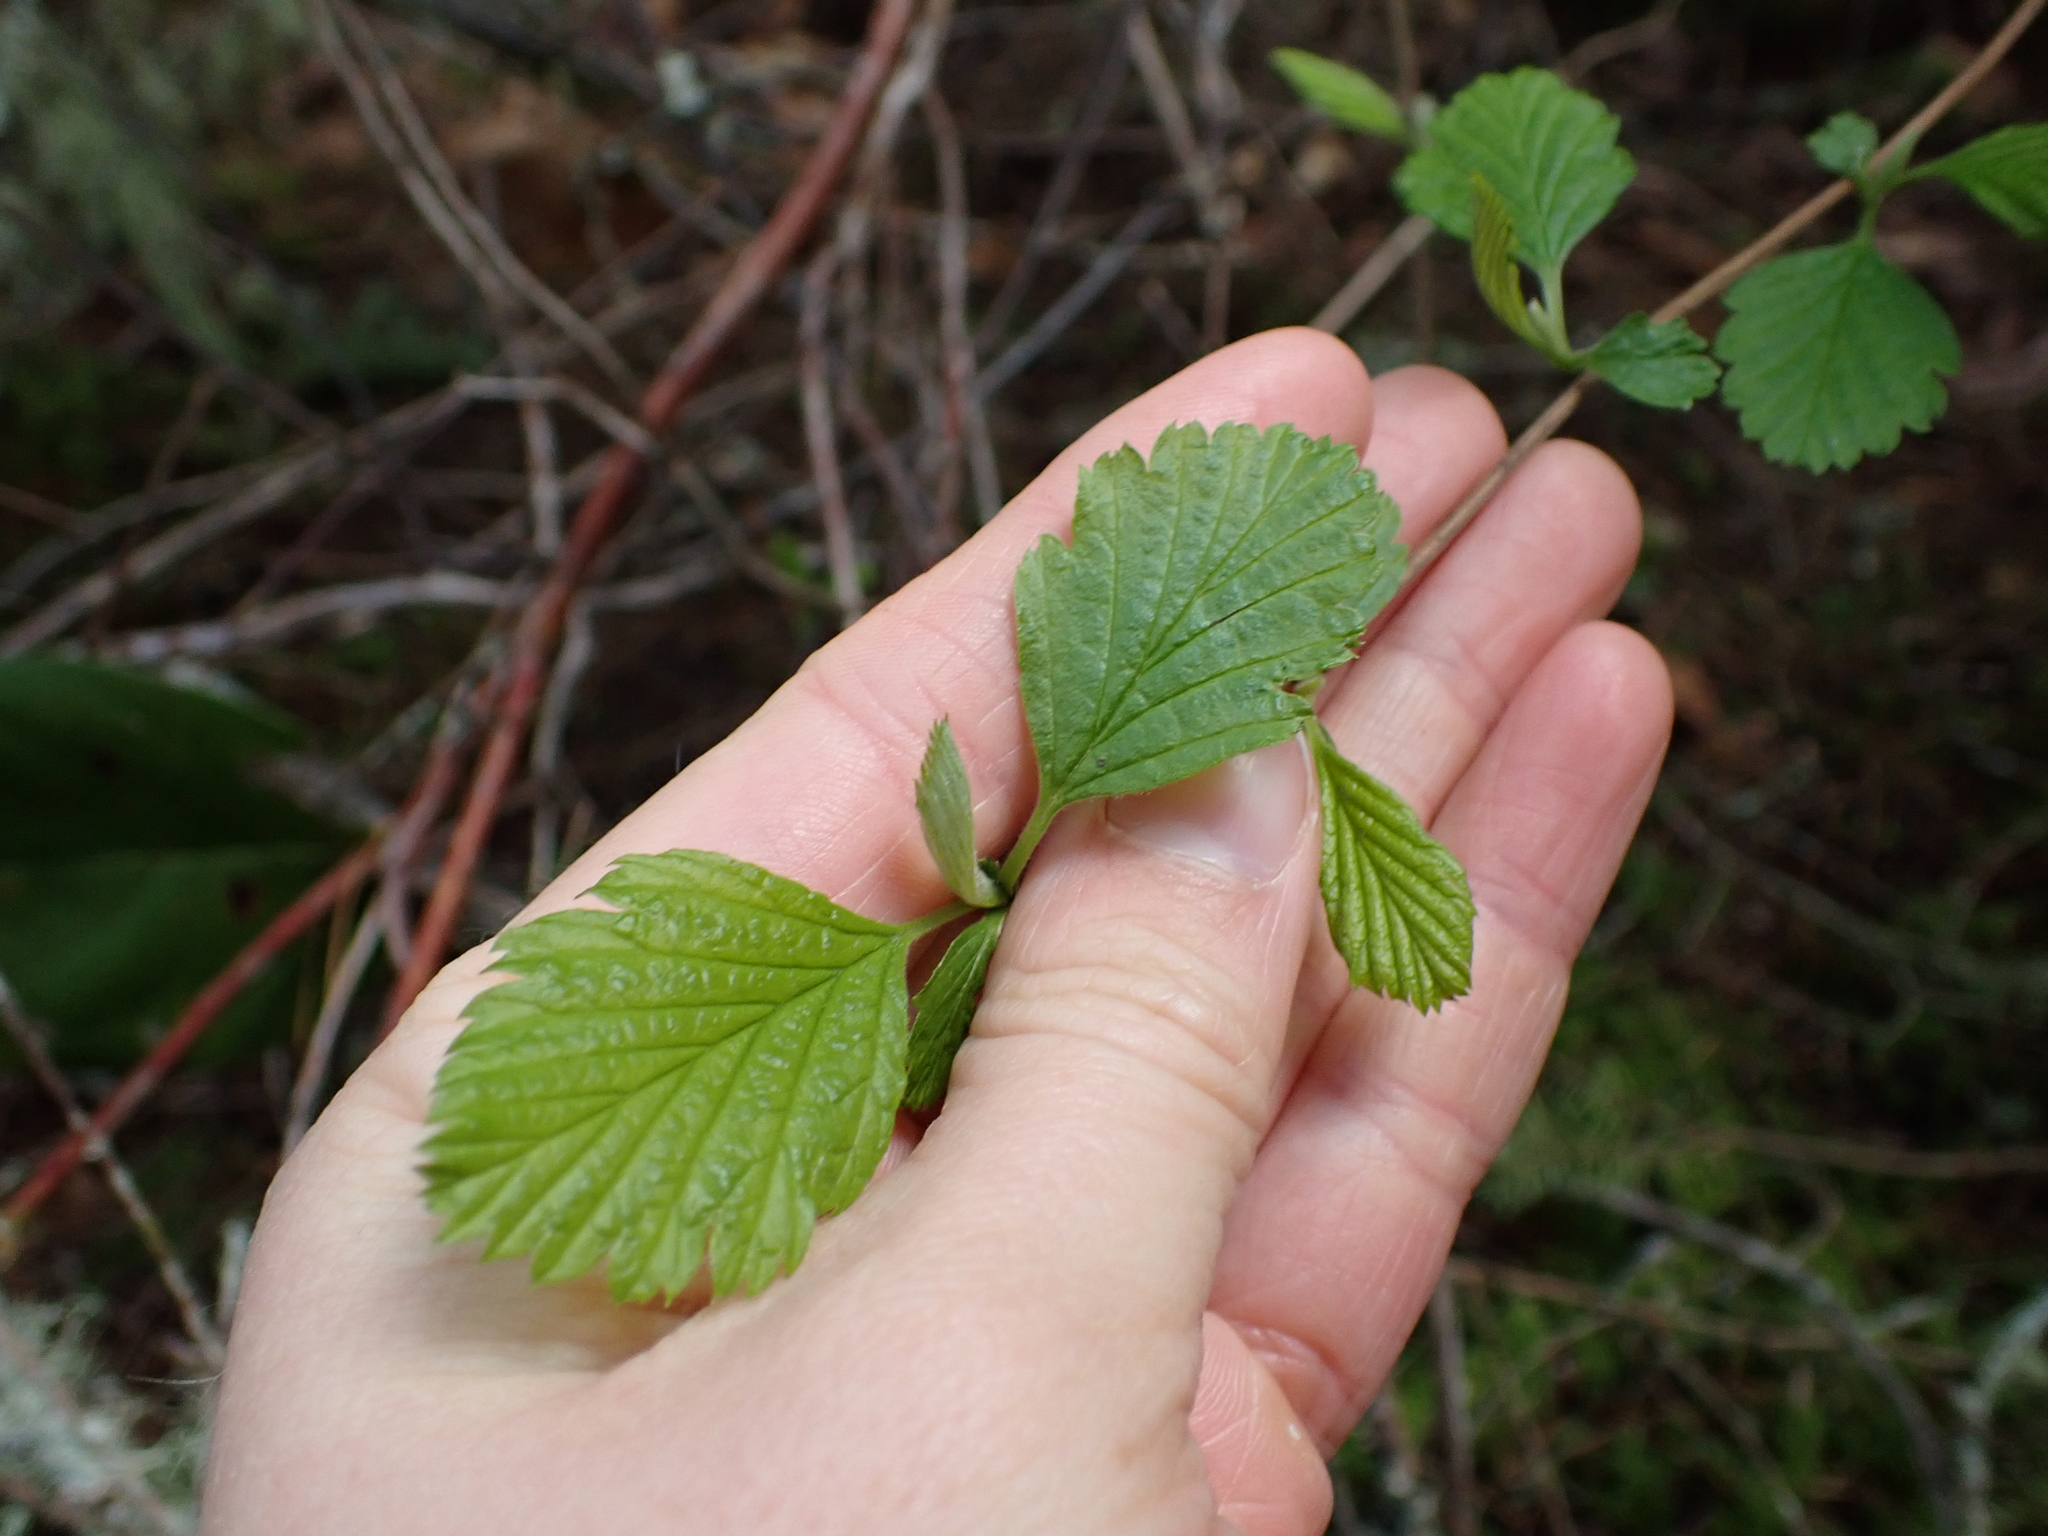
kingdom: Plantae
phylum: Tracheophyta
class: Magnoliopsida
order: Rosales
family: Rosaceae
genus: Holodiscus
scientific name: Holodiscus discolor
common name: Oceanspray
